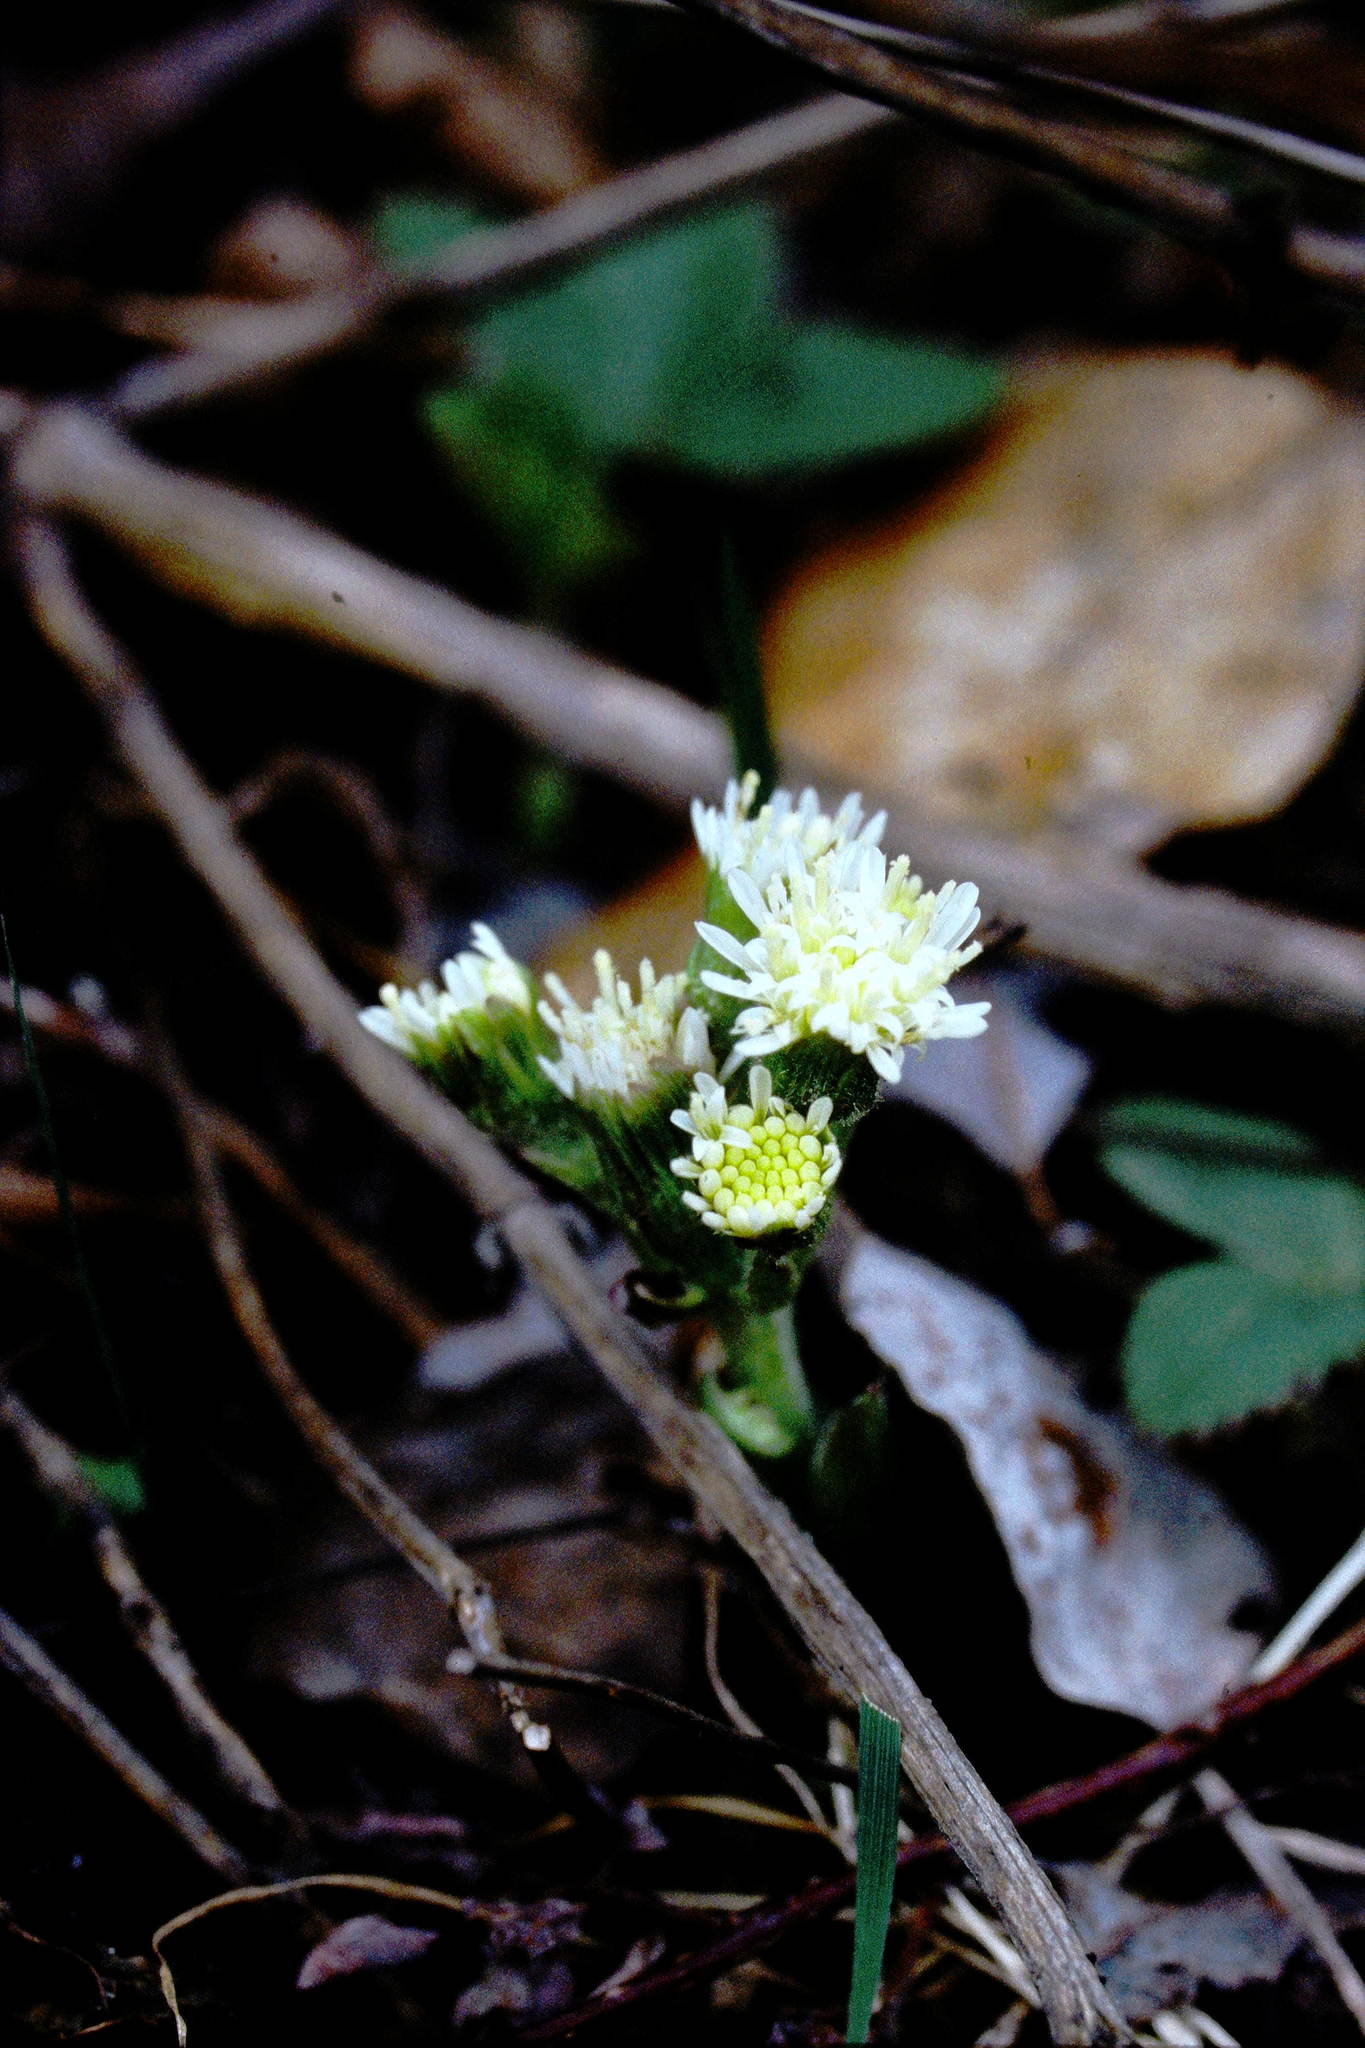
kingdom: Plantae
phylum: Tracheophyta
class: Magnoliopsida
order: Asterales
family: Asteraceae
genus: Petasites
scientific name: Petasites frigidus
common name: Arctic butterbur
